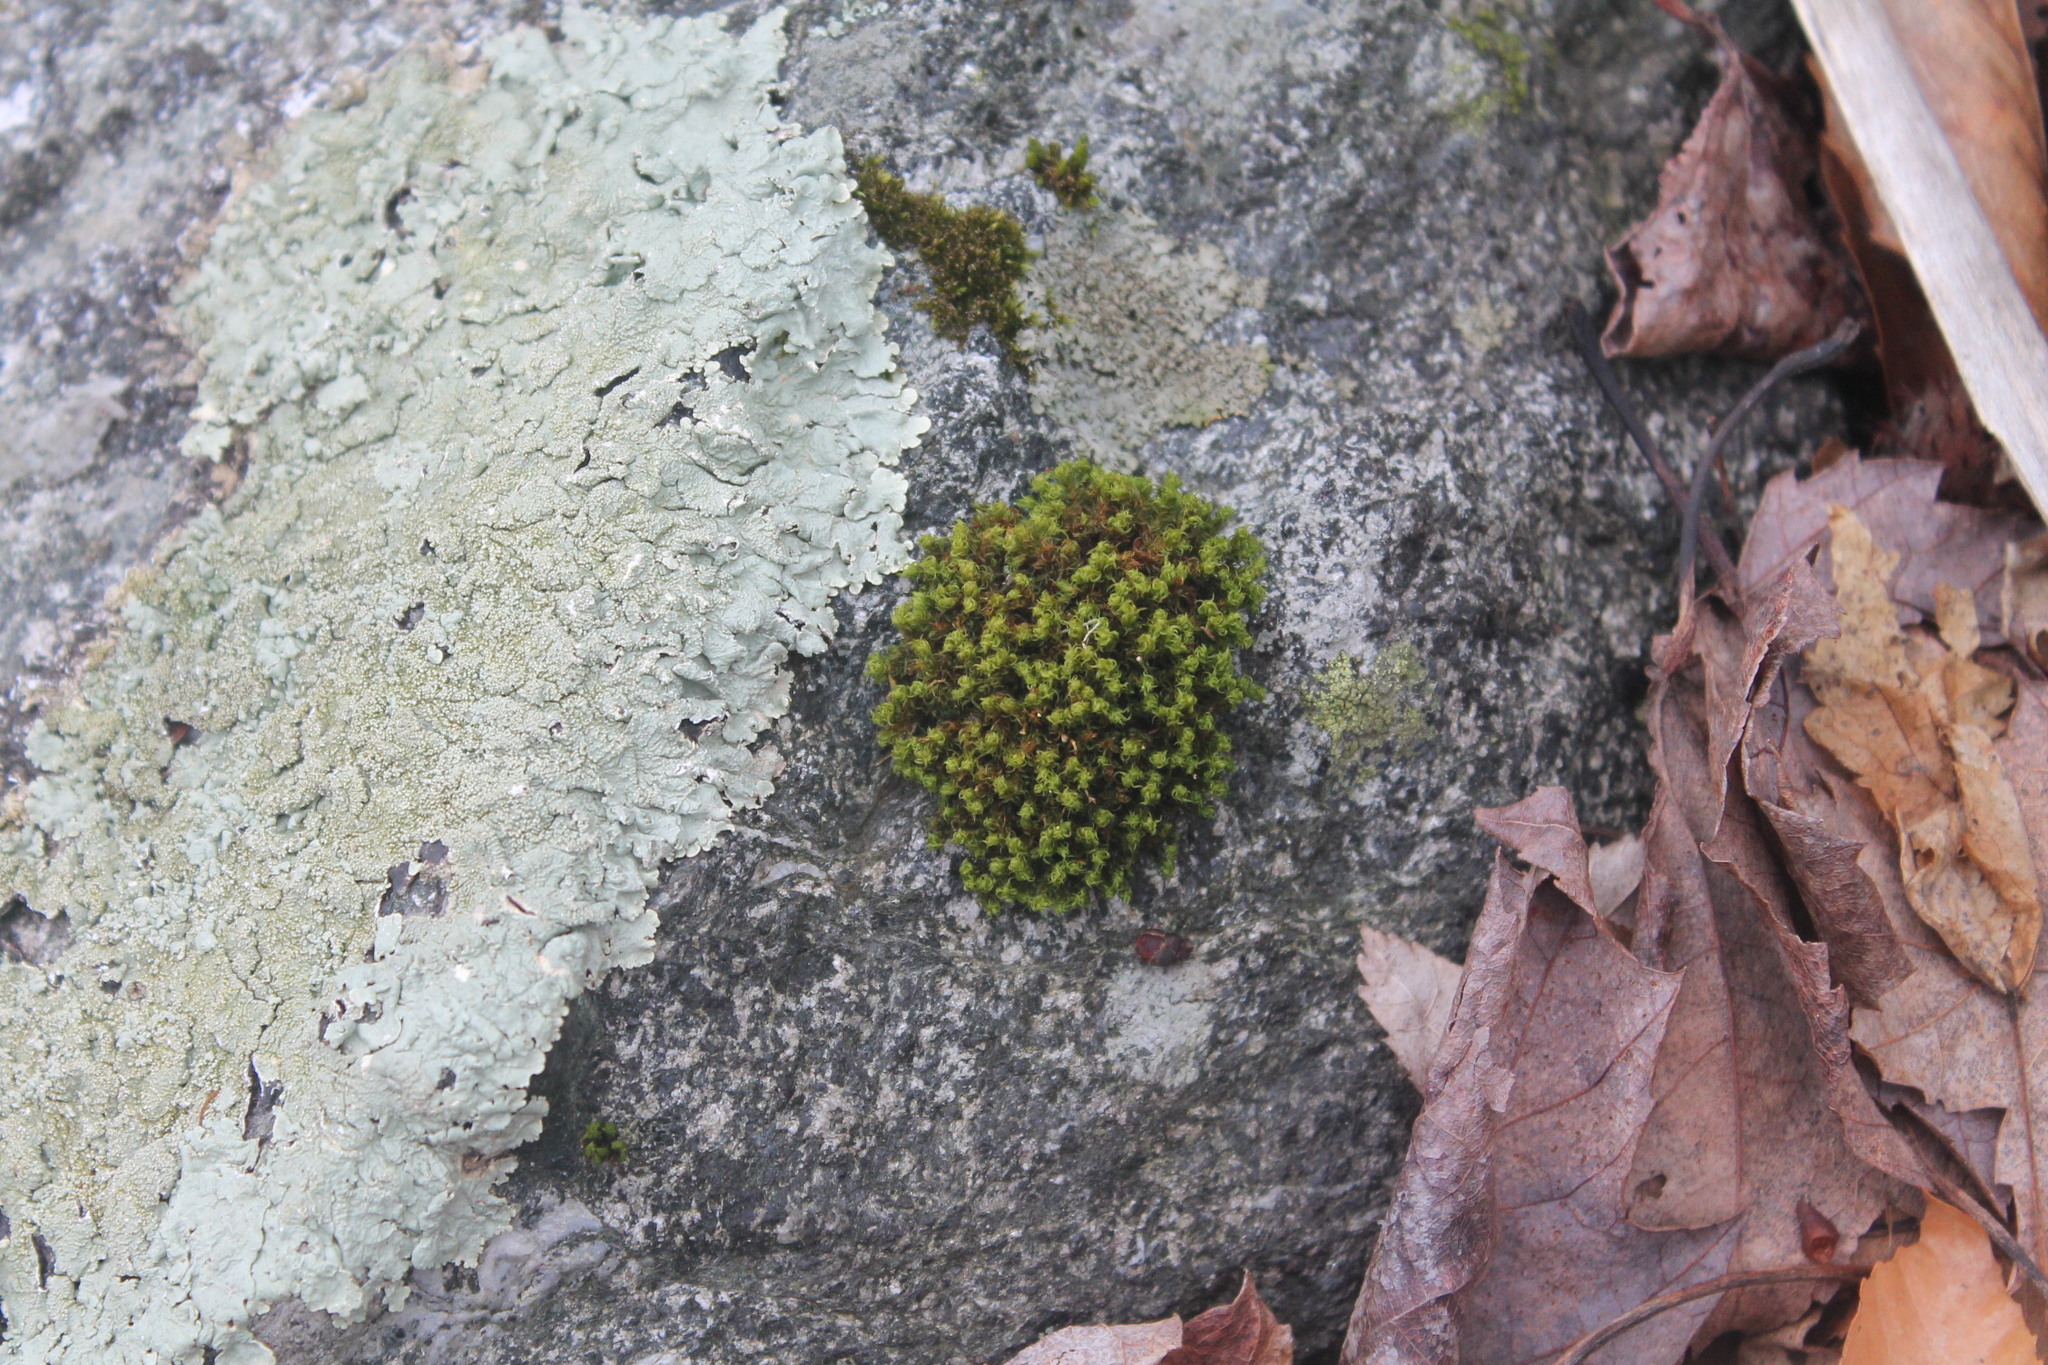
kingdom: Plantae
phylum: Bryophyta
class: Bryopsida
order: Orthotrichales
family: Orthotrichaceae
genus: Ulota
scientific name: Ulota crispa
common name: Crisped pincushion moss
